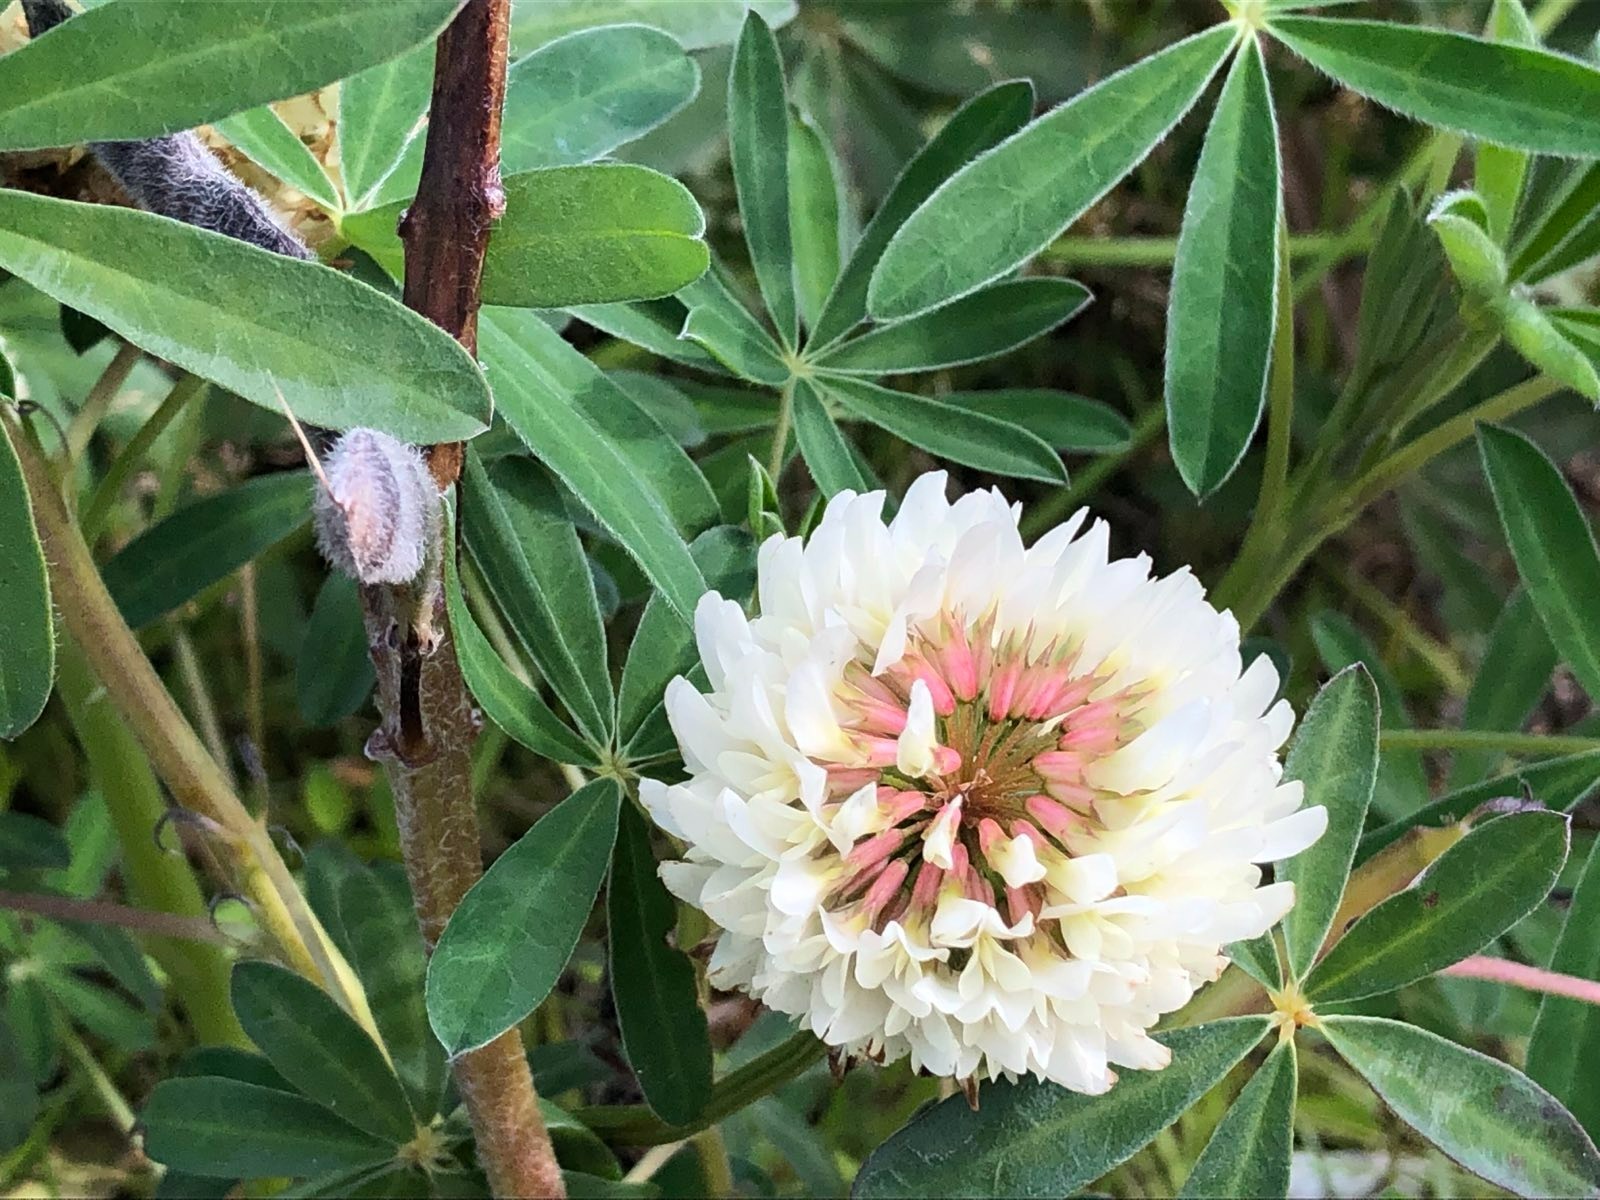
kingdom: Plantae
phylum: Tracheophyta
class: Magnoliopsida
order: Fabales
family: Fabaceae
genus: Trifolium
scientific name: Trifolium repens
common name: White clover
